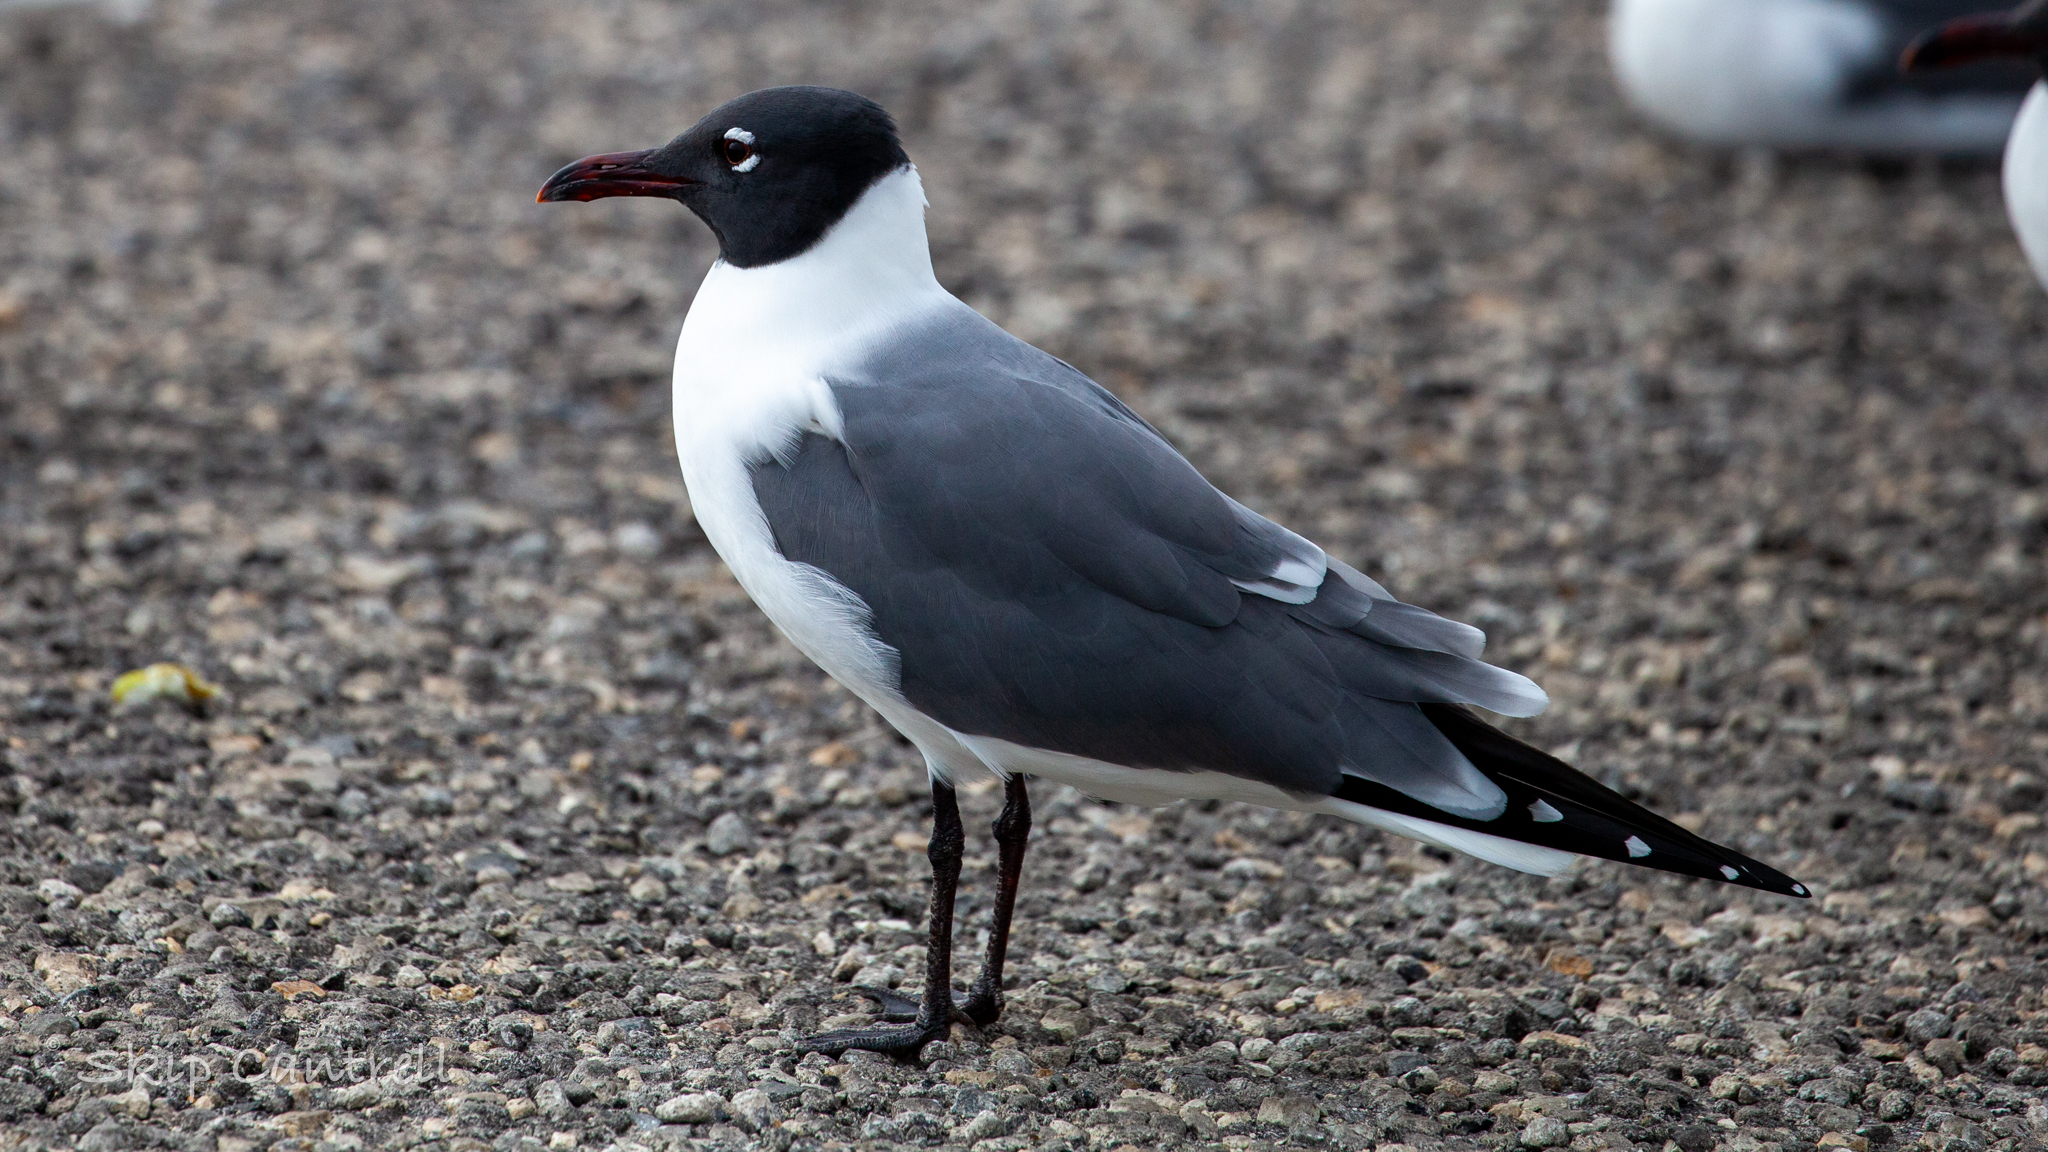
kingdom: Animalia
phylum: Chordata
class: Aves
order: Charadriiformes
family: Laridae
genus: Leucophaeus
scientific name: Leucophaeus atricilla
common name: Laughing gull
